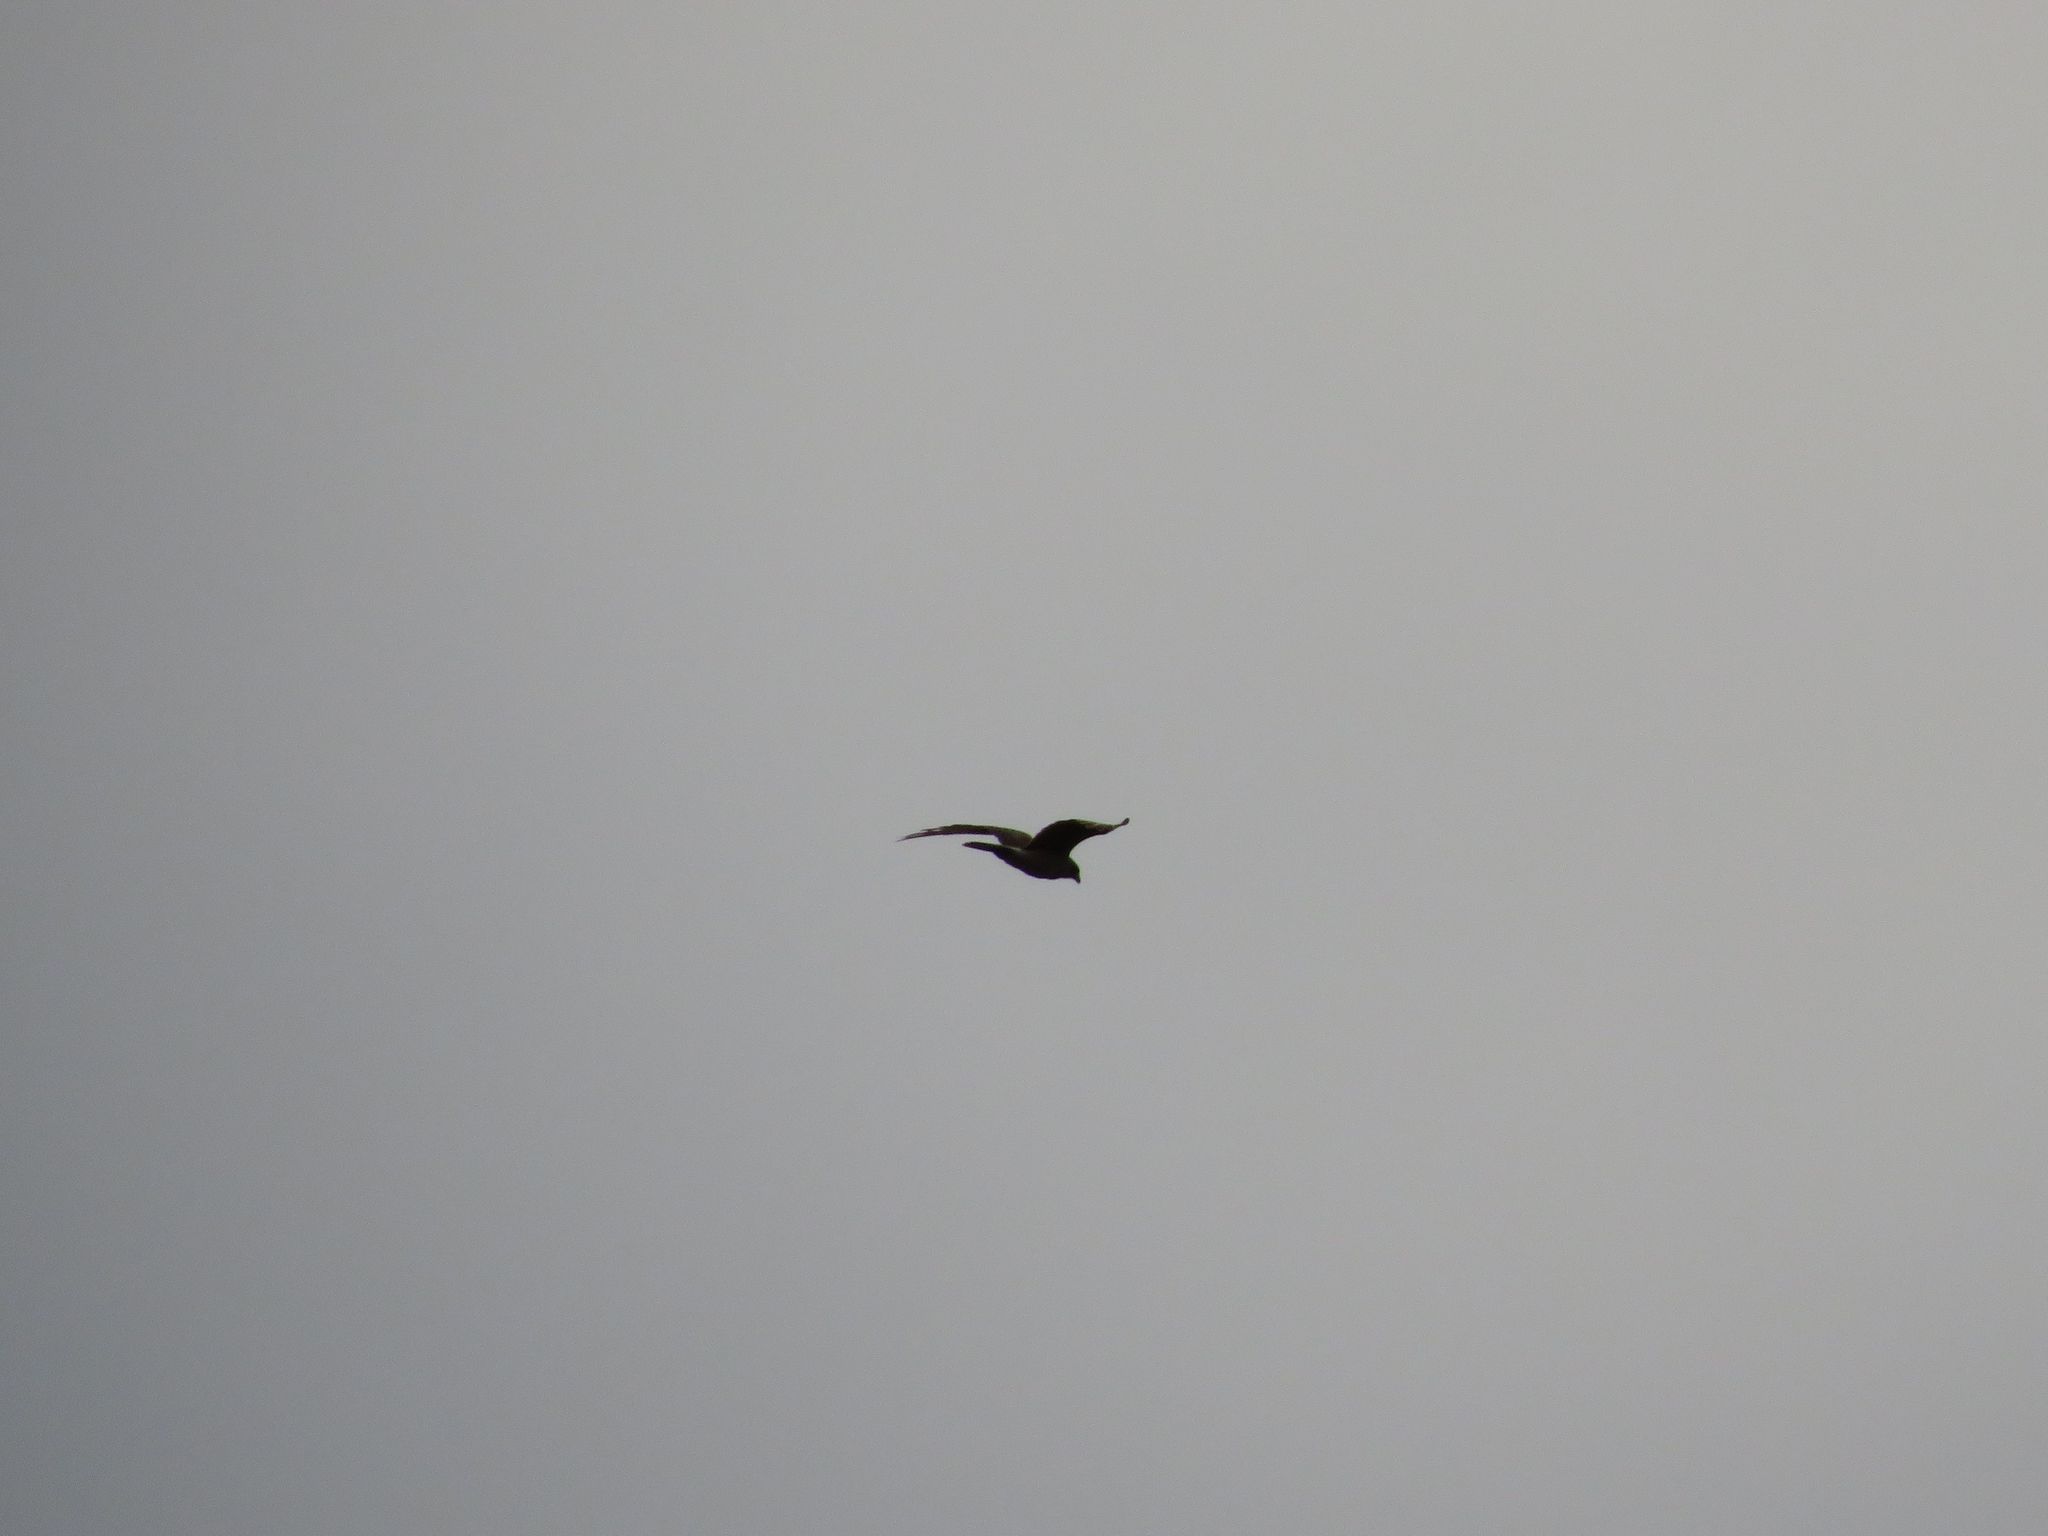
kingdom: Animalia
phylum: Chordata
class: Aves
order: Falconiformes
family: Falconidae
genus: Daptrius
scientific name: Daptrius
